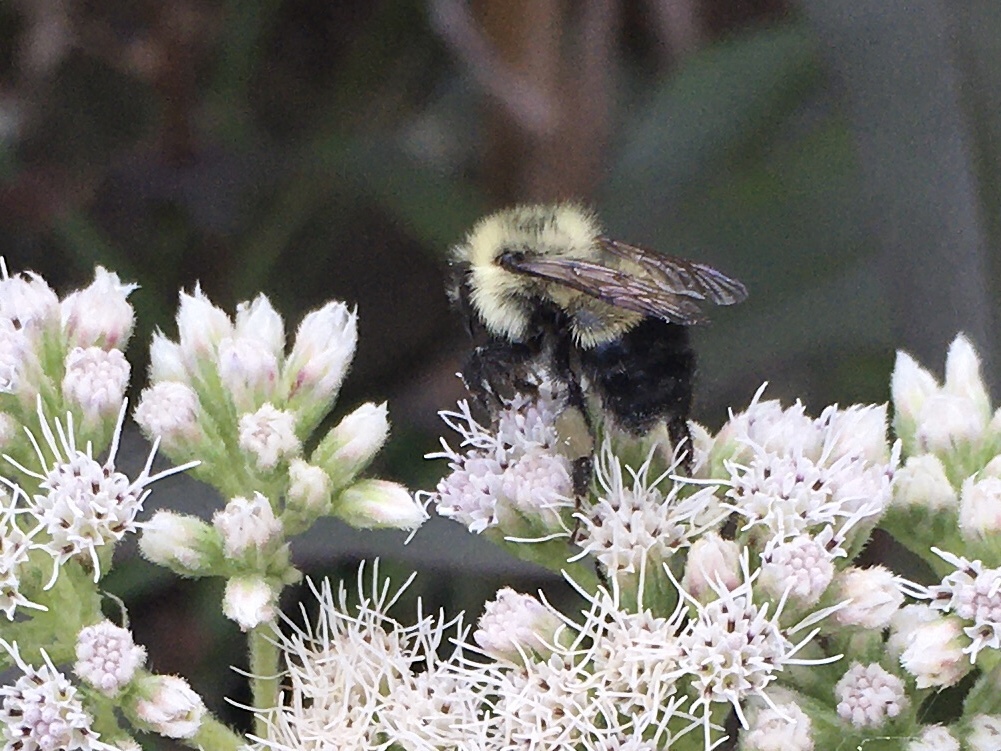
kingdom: Animalia
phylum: Arthropoda
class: Insecta
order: Hymenoptera
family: Apidae
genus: Bombus
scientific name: Bombus vagans
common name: Half-black bumble bee
